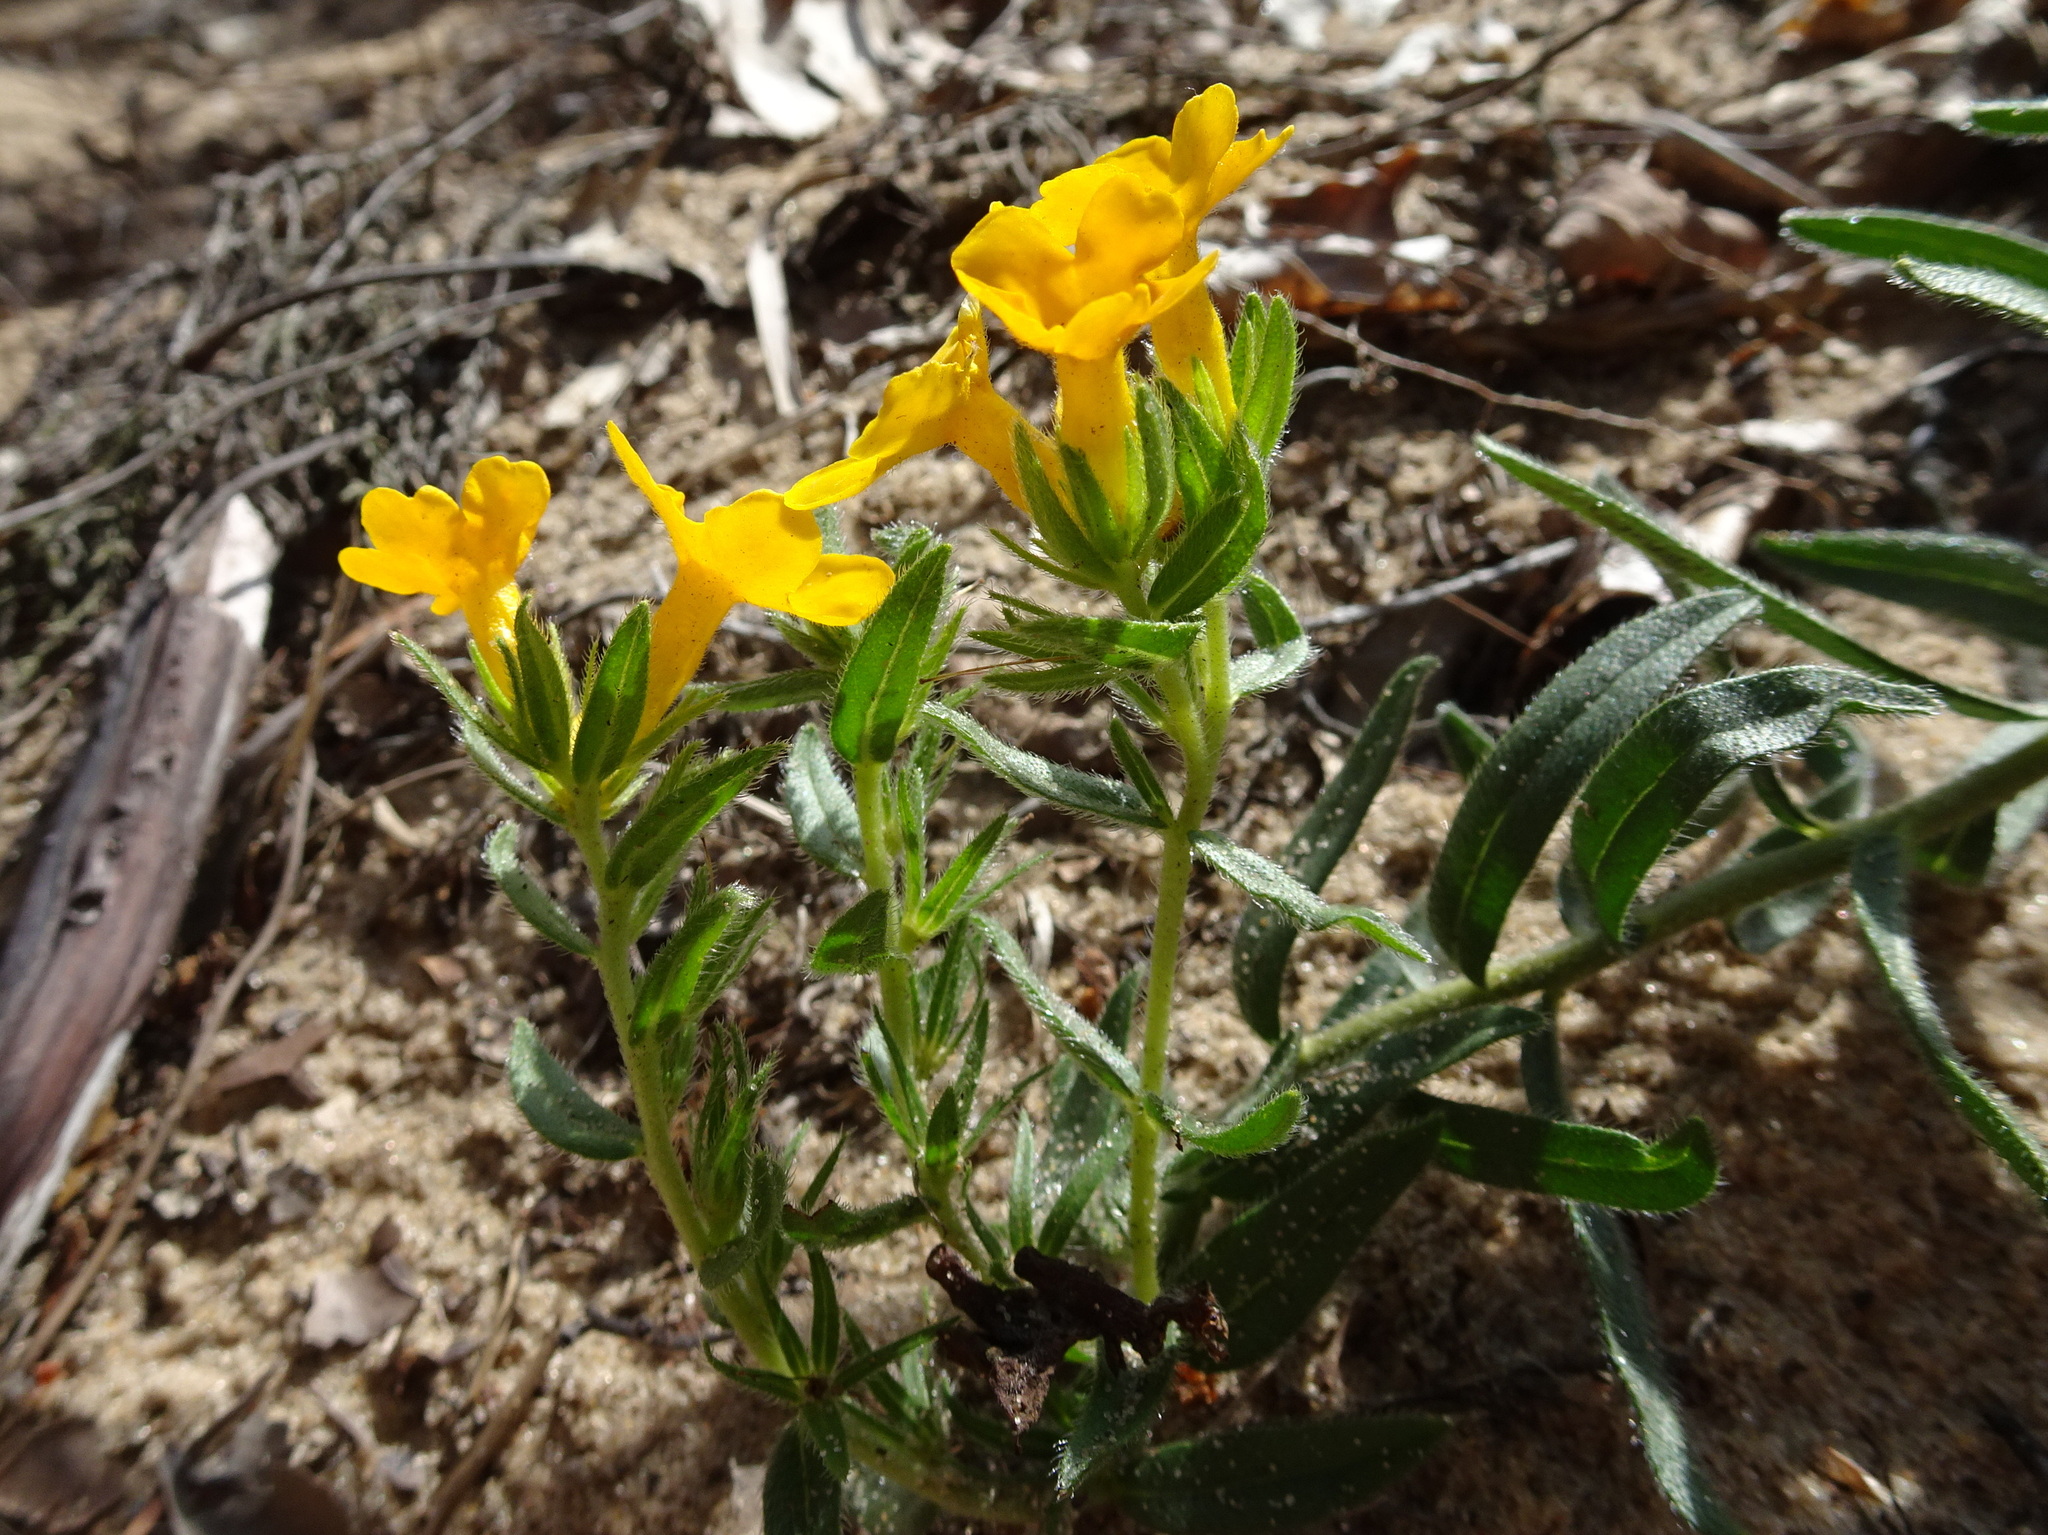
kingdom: Plantae
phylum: Tracheophyta
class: Magnoliopsida
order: Boraginales
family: Boraginaceae
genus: Lithospermum
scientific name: Lithospermum caroliniense
